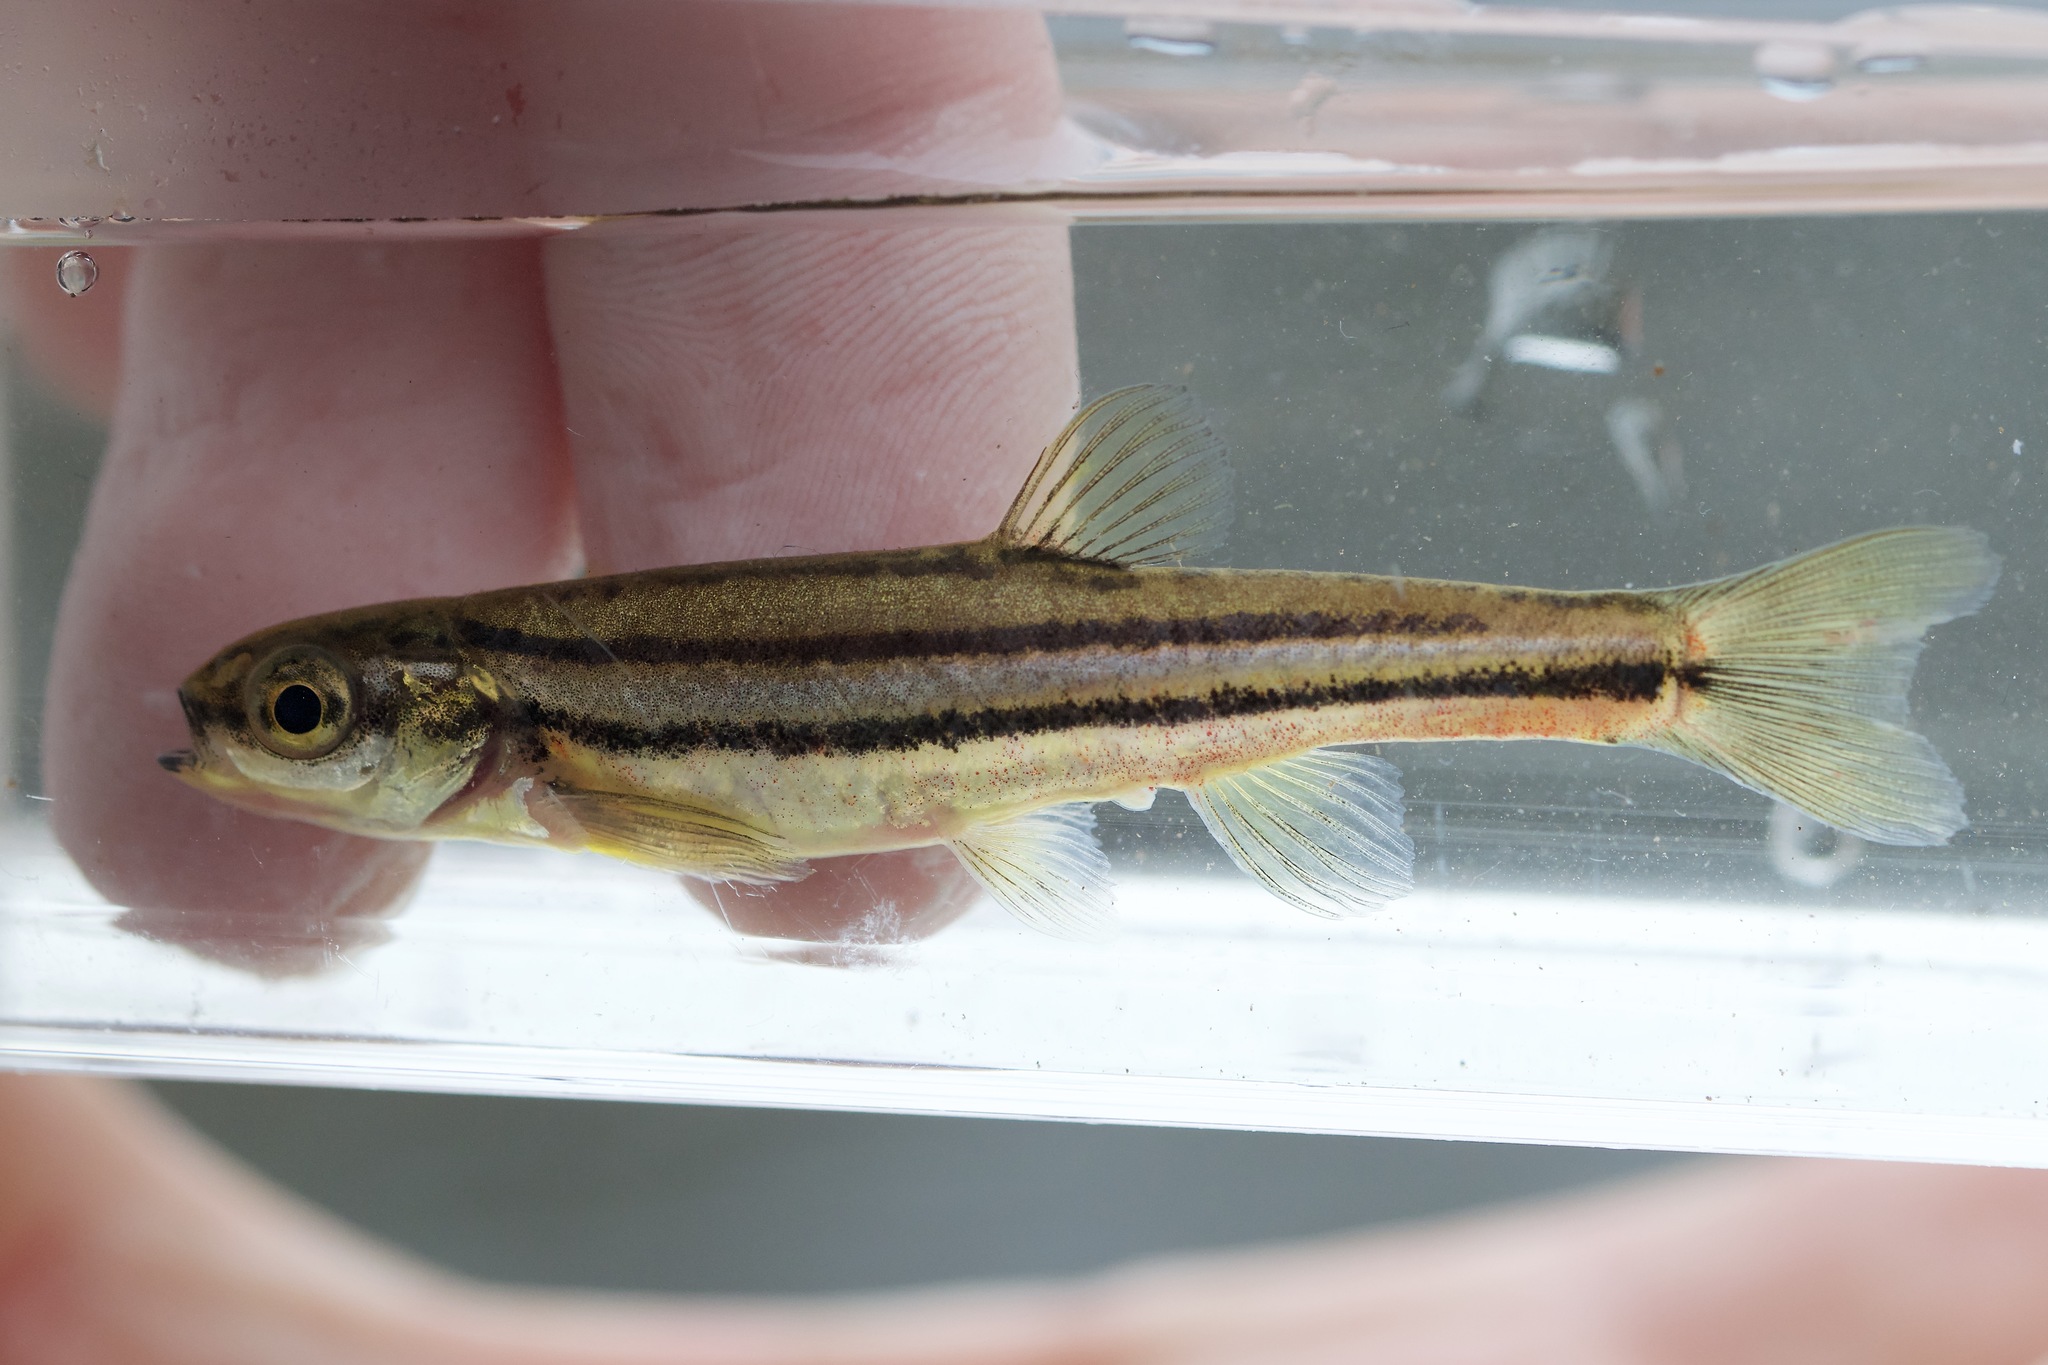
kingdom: Animalia
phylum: Chordata
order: Cypriniformes
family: Cyprinidae
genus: Chrosomus
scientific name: Chrosomus eos
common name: Northern redbelly dace
